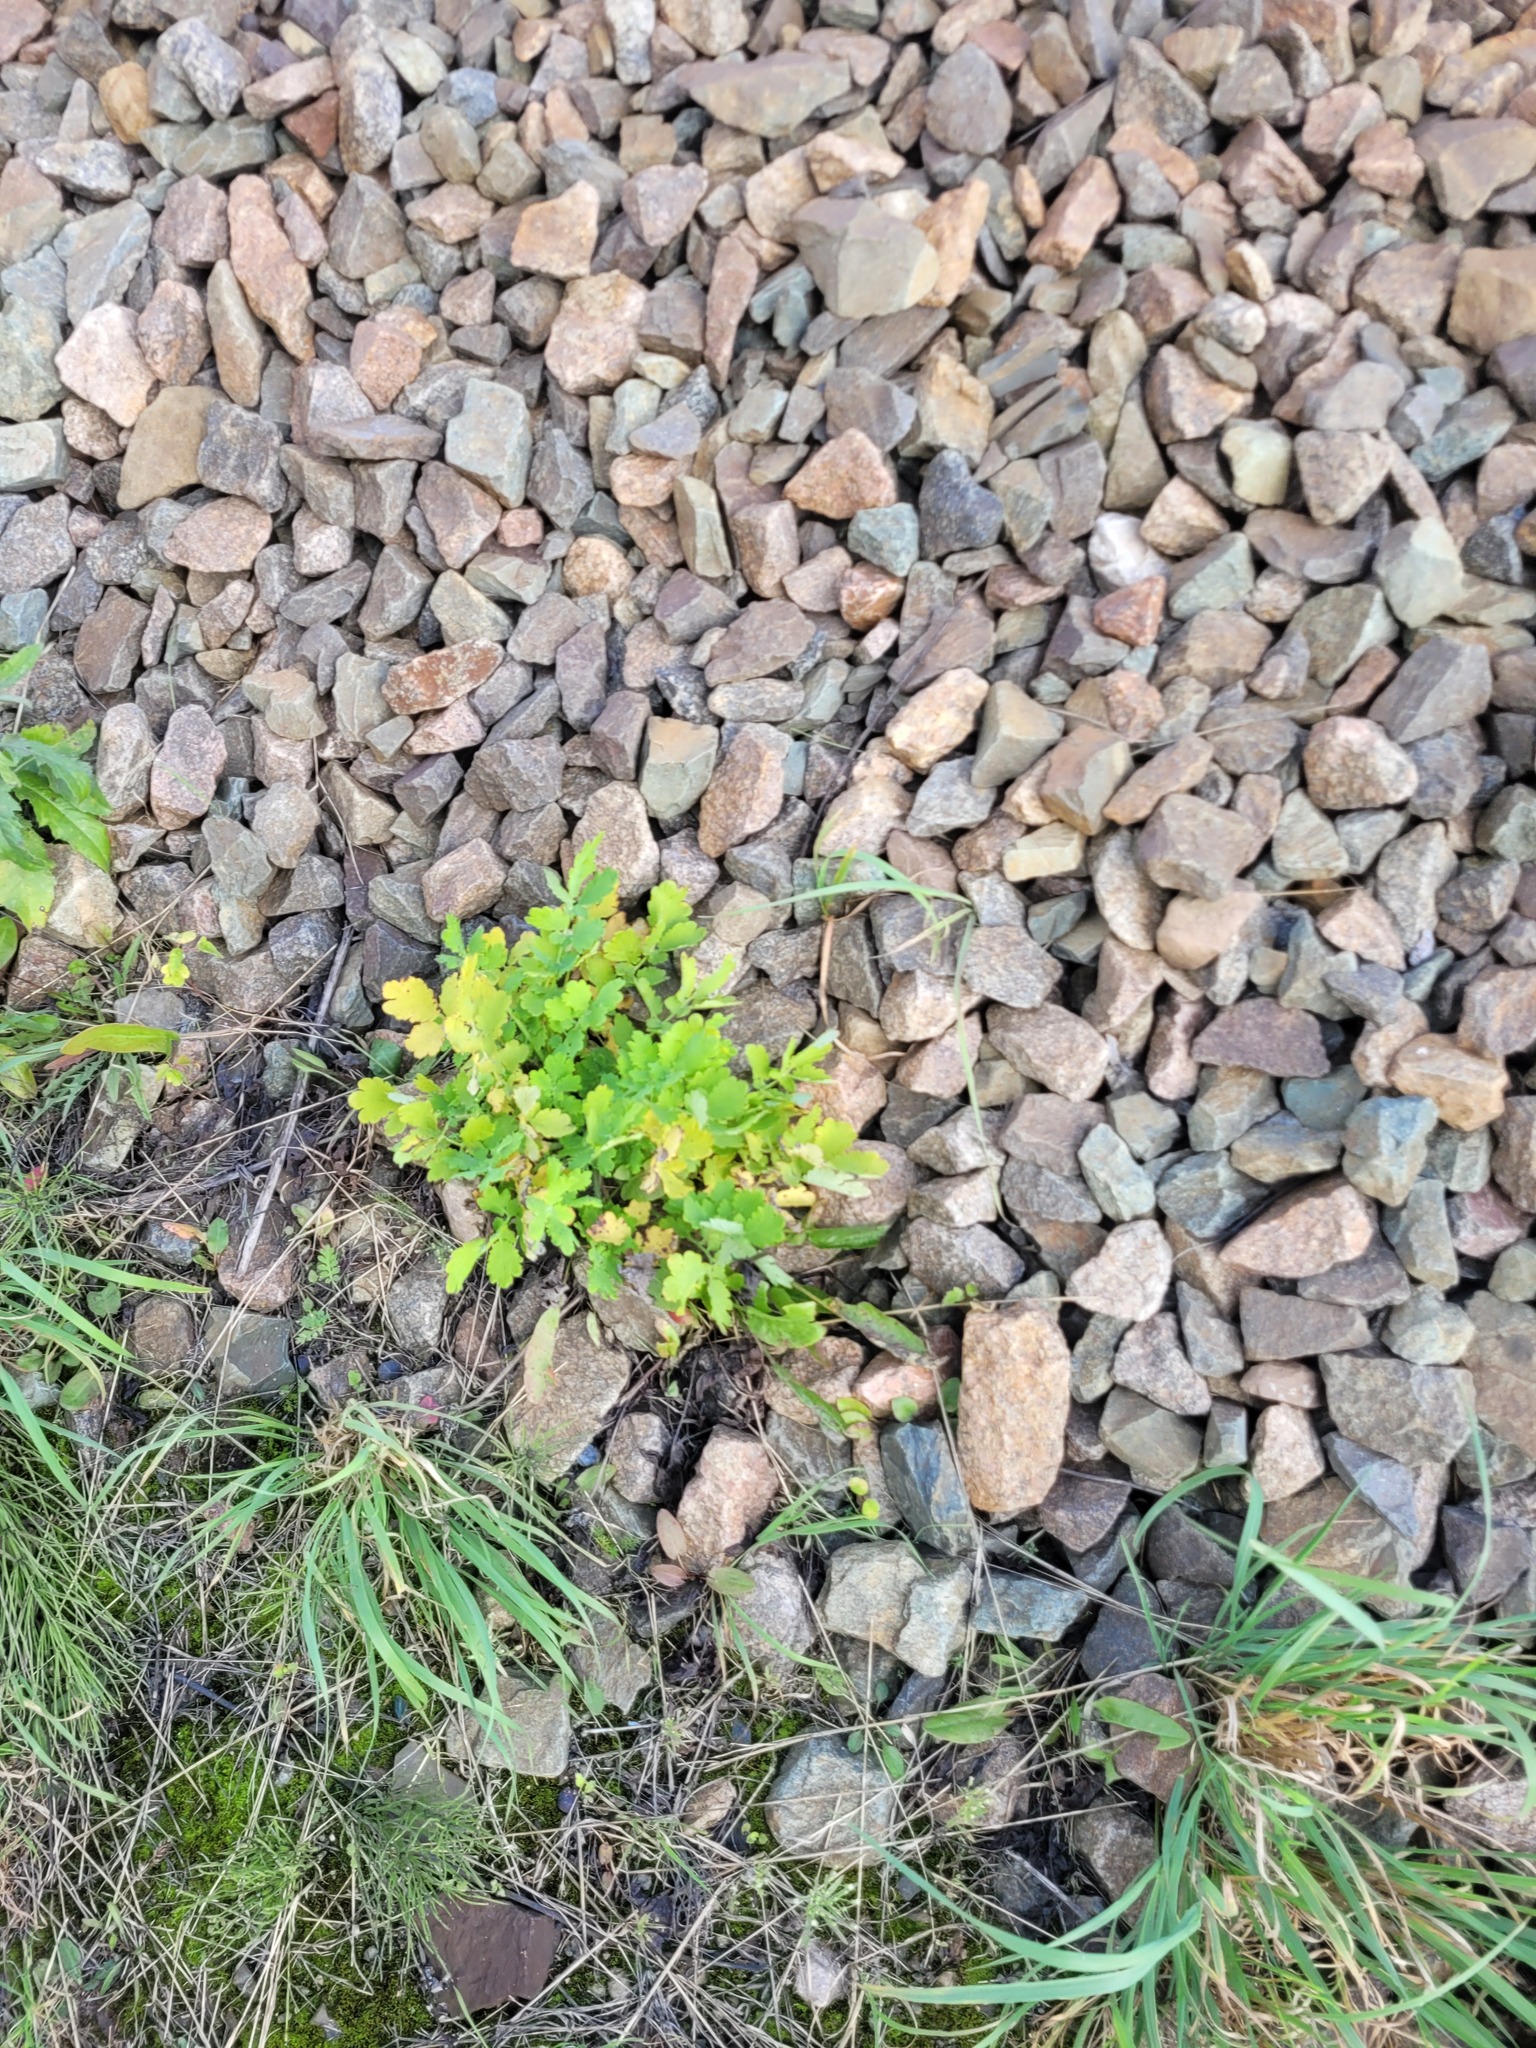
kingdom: Plantae
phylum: Tracheophyta
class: Magnoliopsida
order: Ranunculales
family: Papaveraceae
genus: Chelidonium
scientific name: Chelidonium majus
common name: Greater celandine
